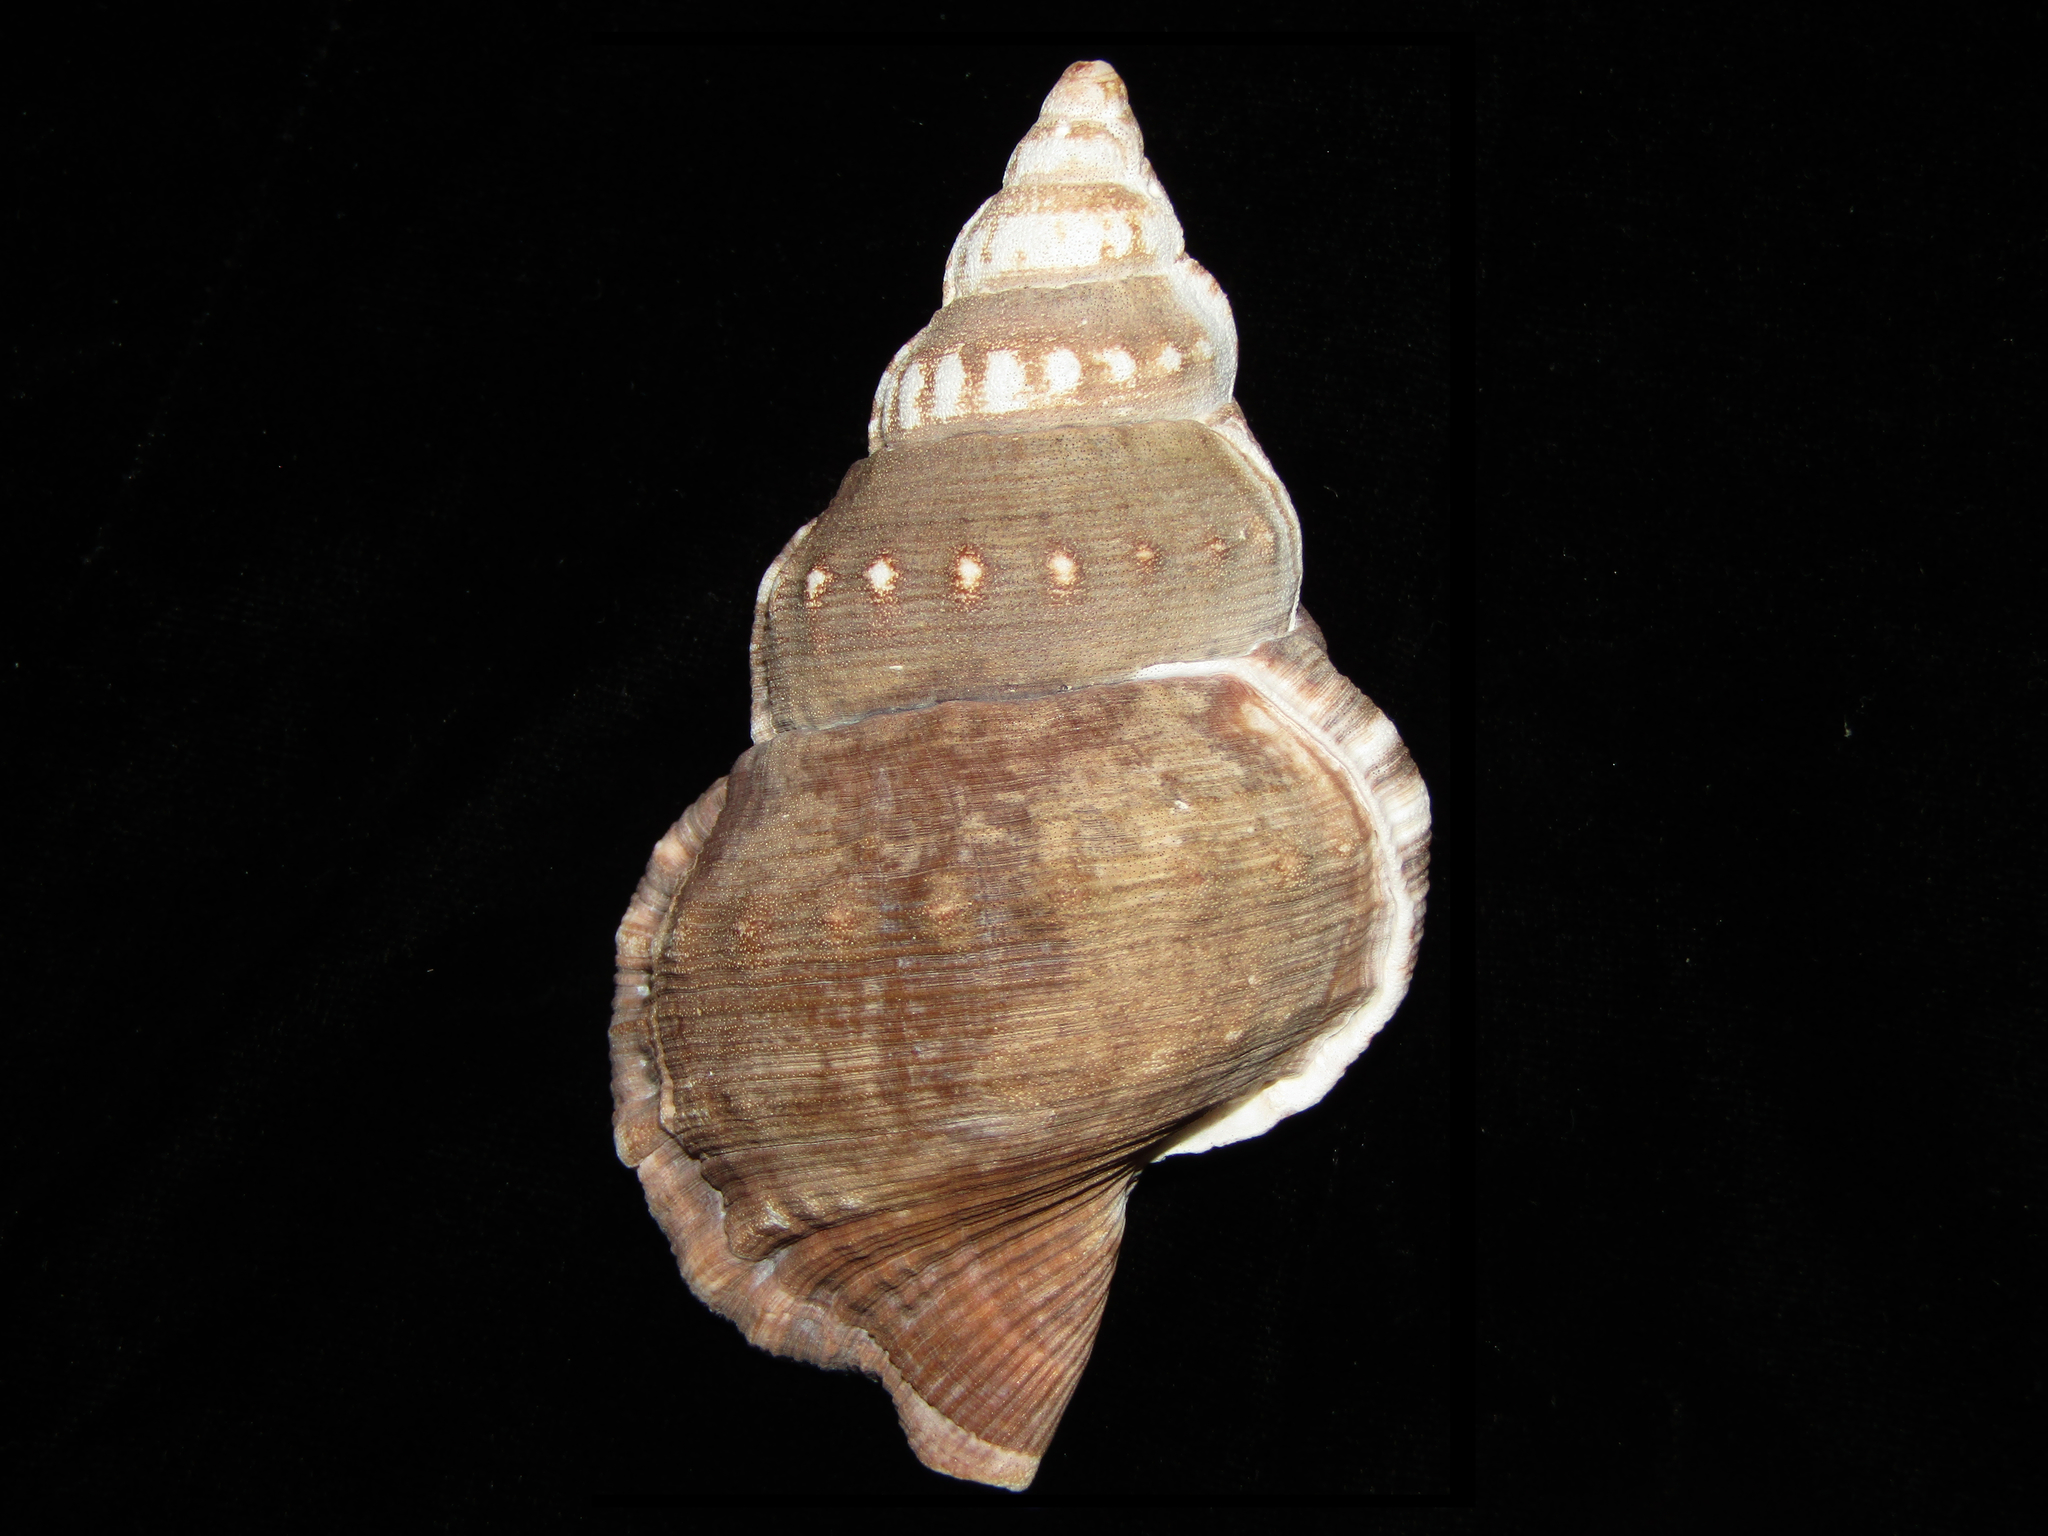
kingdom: Animalia
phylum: Mollusca
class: Gastropoda
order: Littorinimorpha
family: Ranellidae
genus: Ranella
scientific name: Ranella australasia
